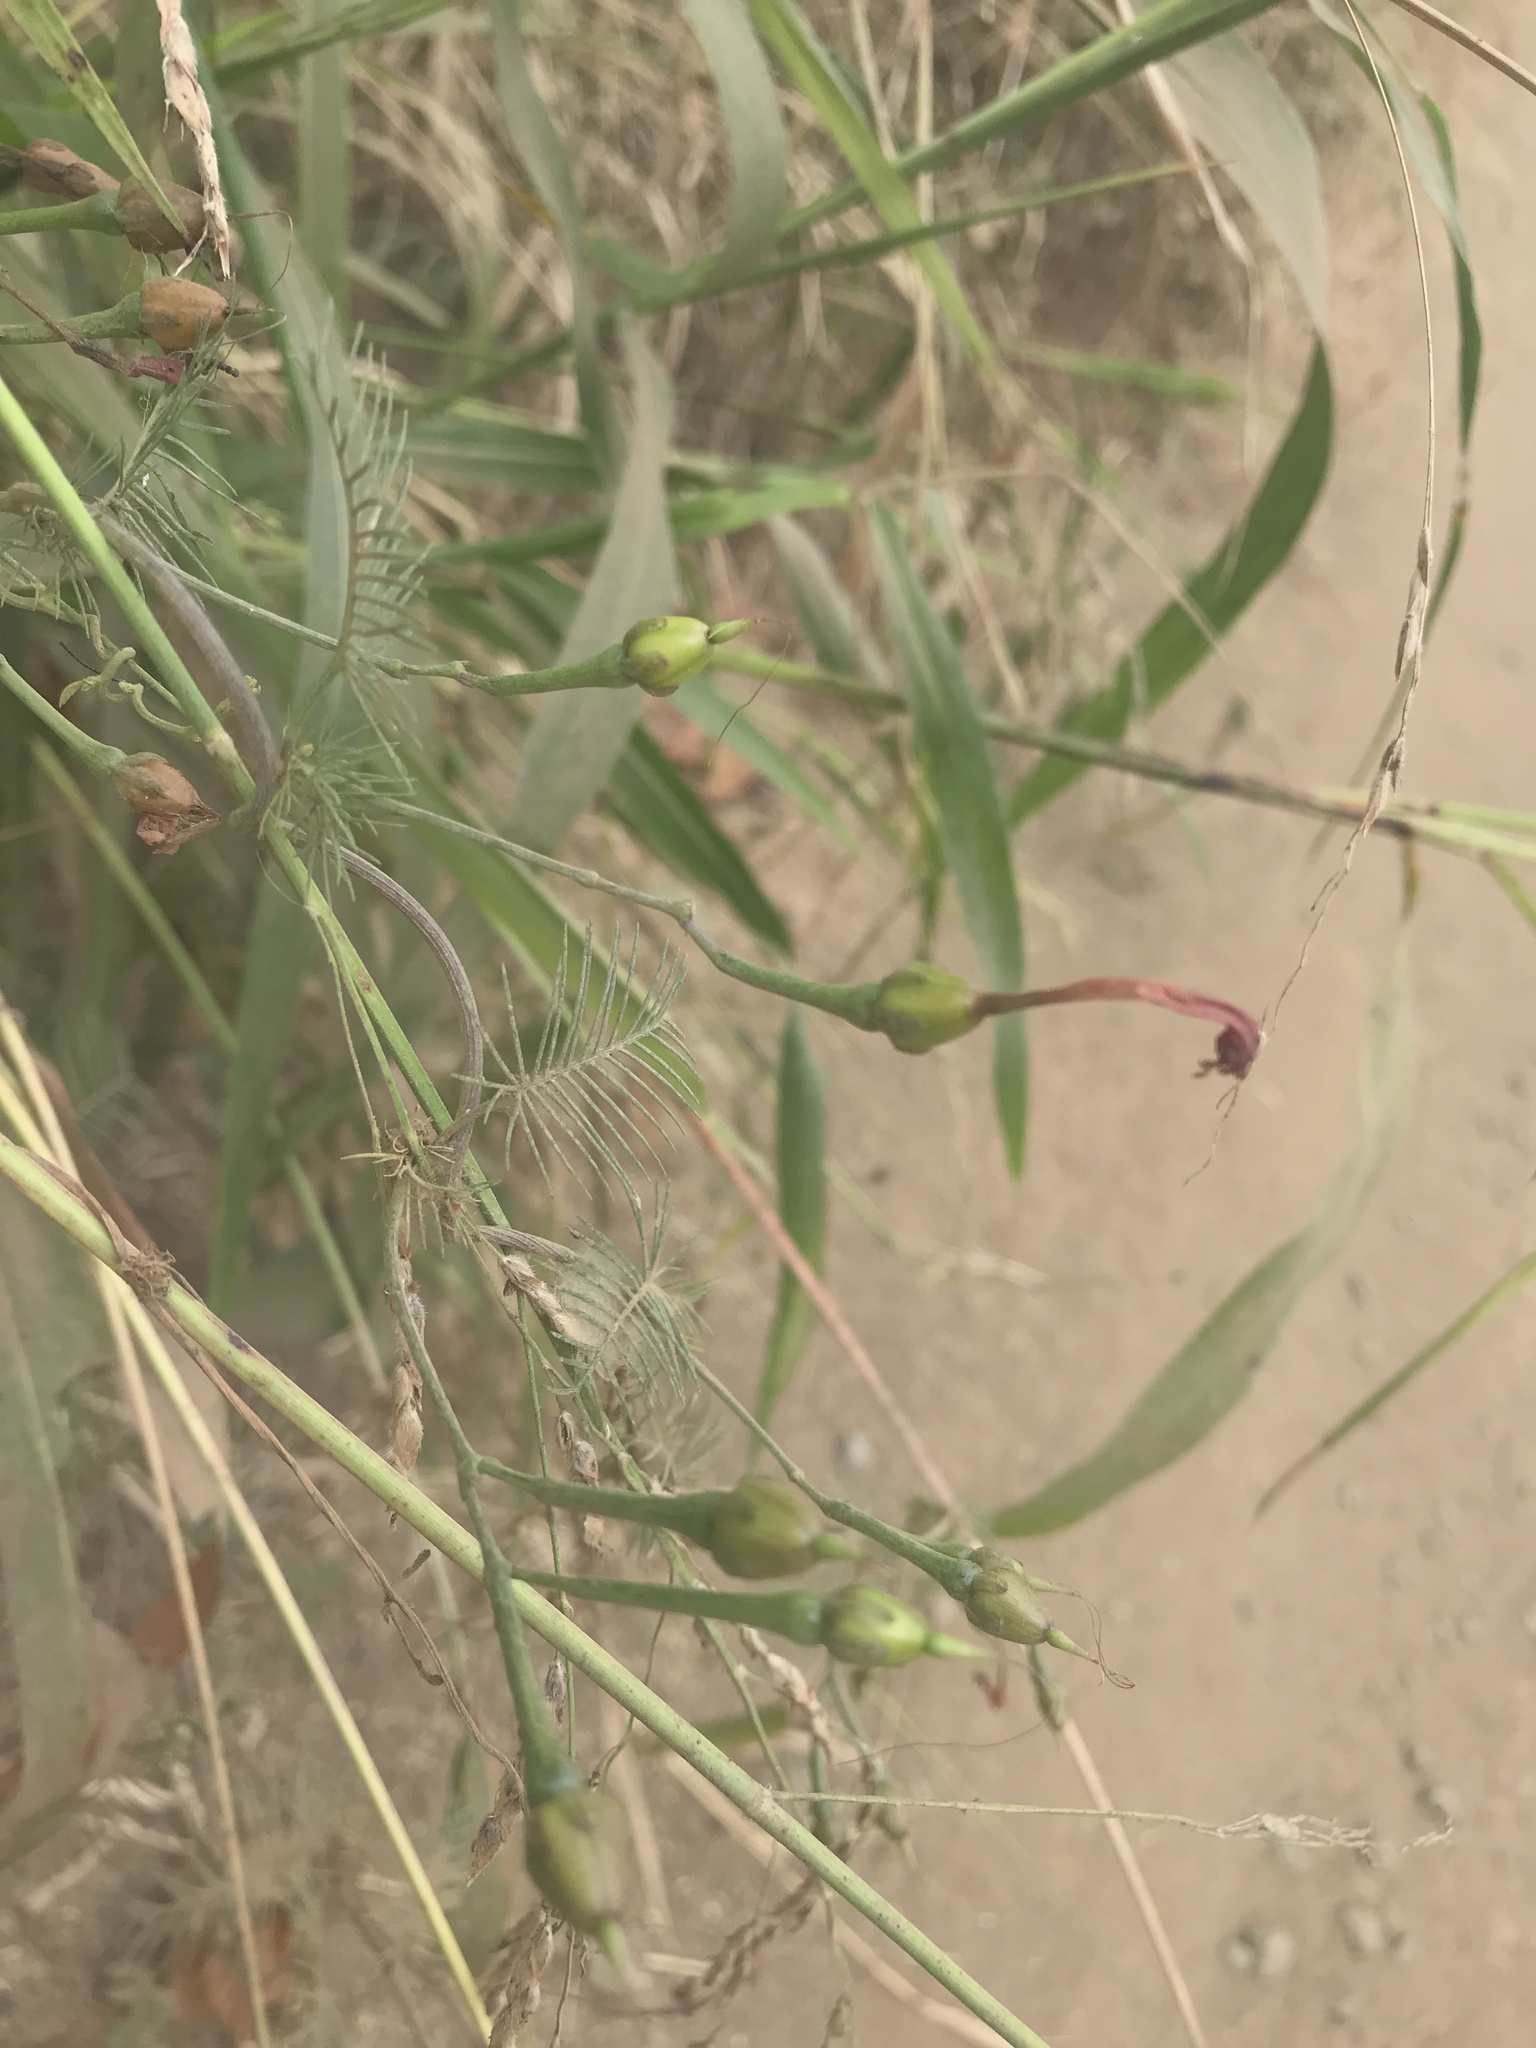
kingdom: Plantae
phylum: Tracheophyta
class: Magnoliopsida
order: Solanales
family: Convolvulaceae
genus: Ipomoea
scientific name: Ipomoea quamoclit
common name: Cypress vine
